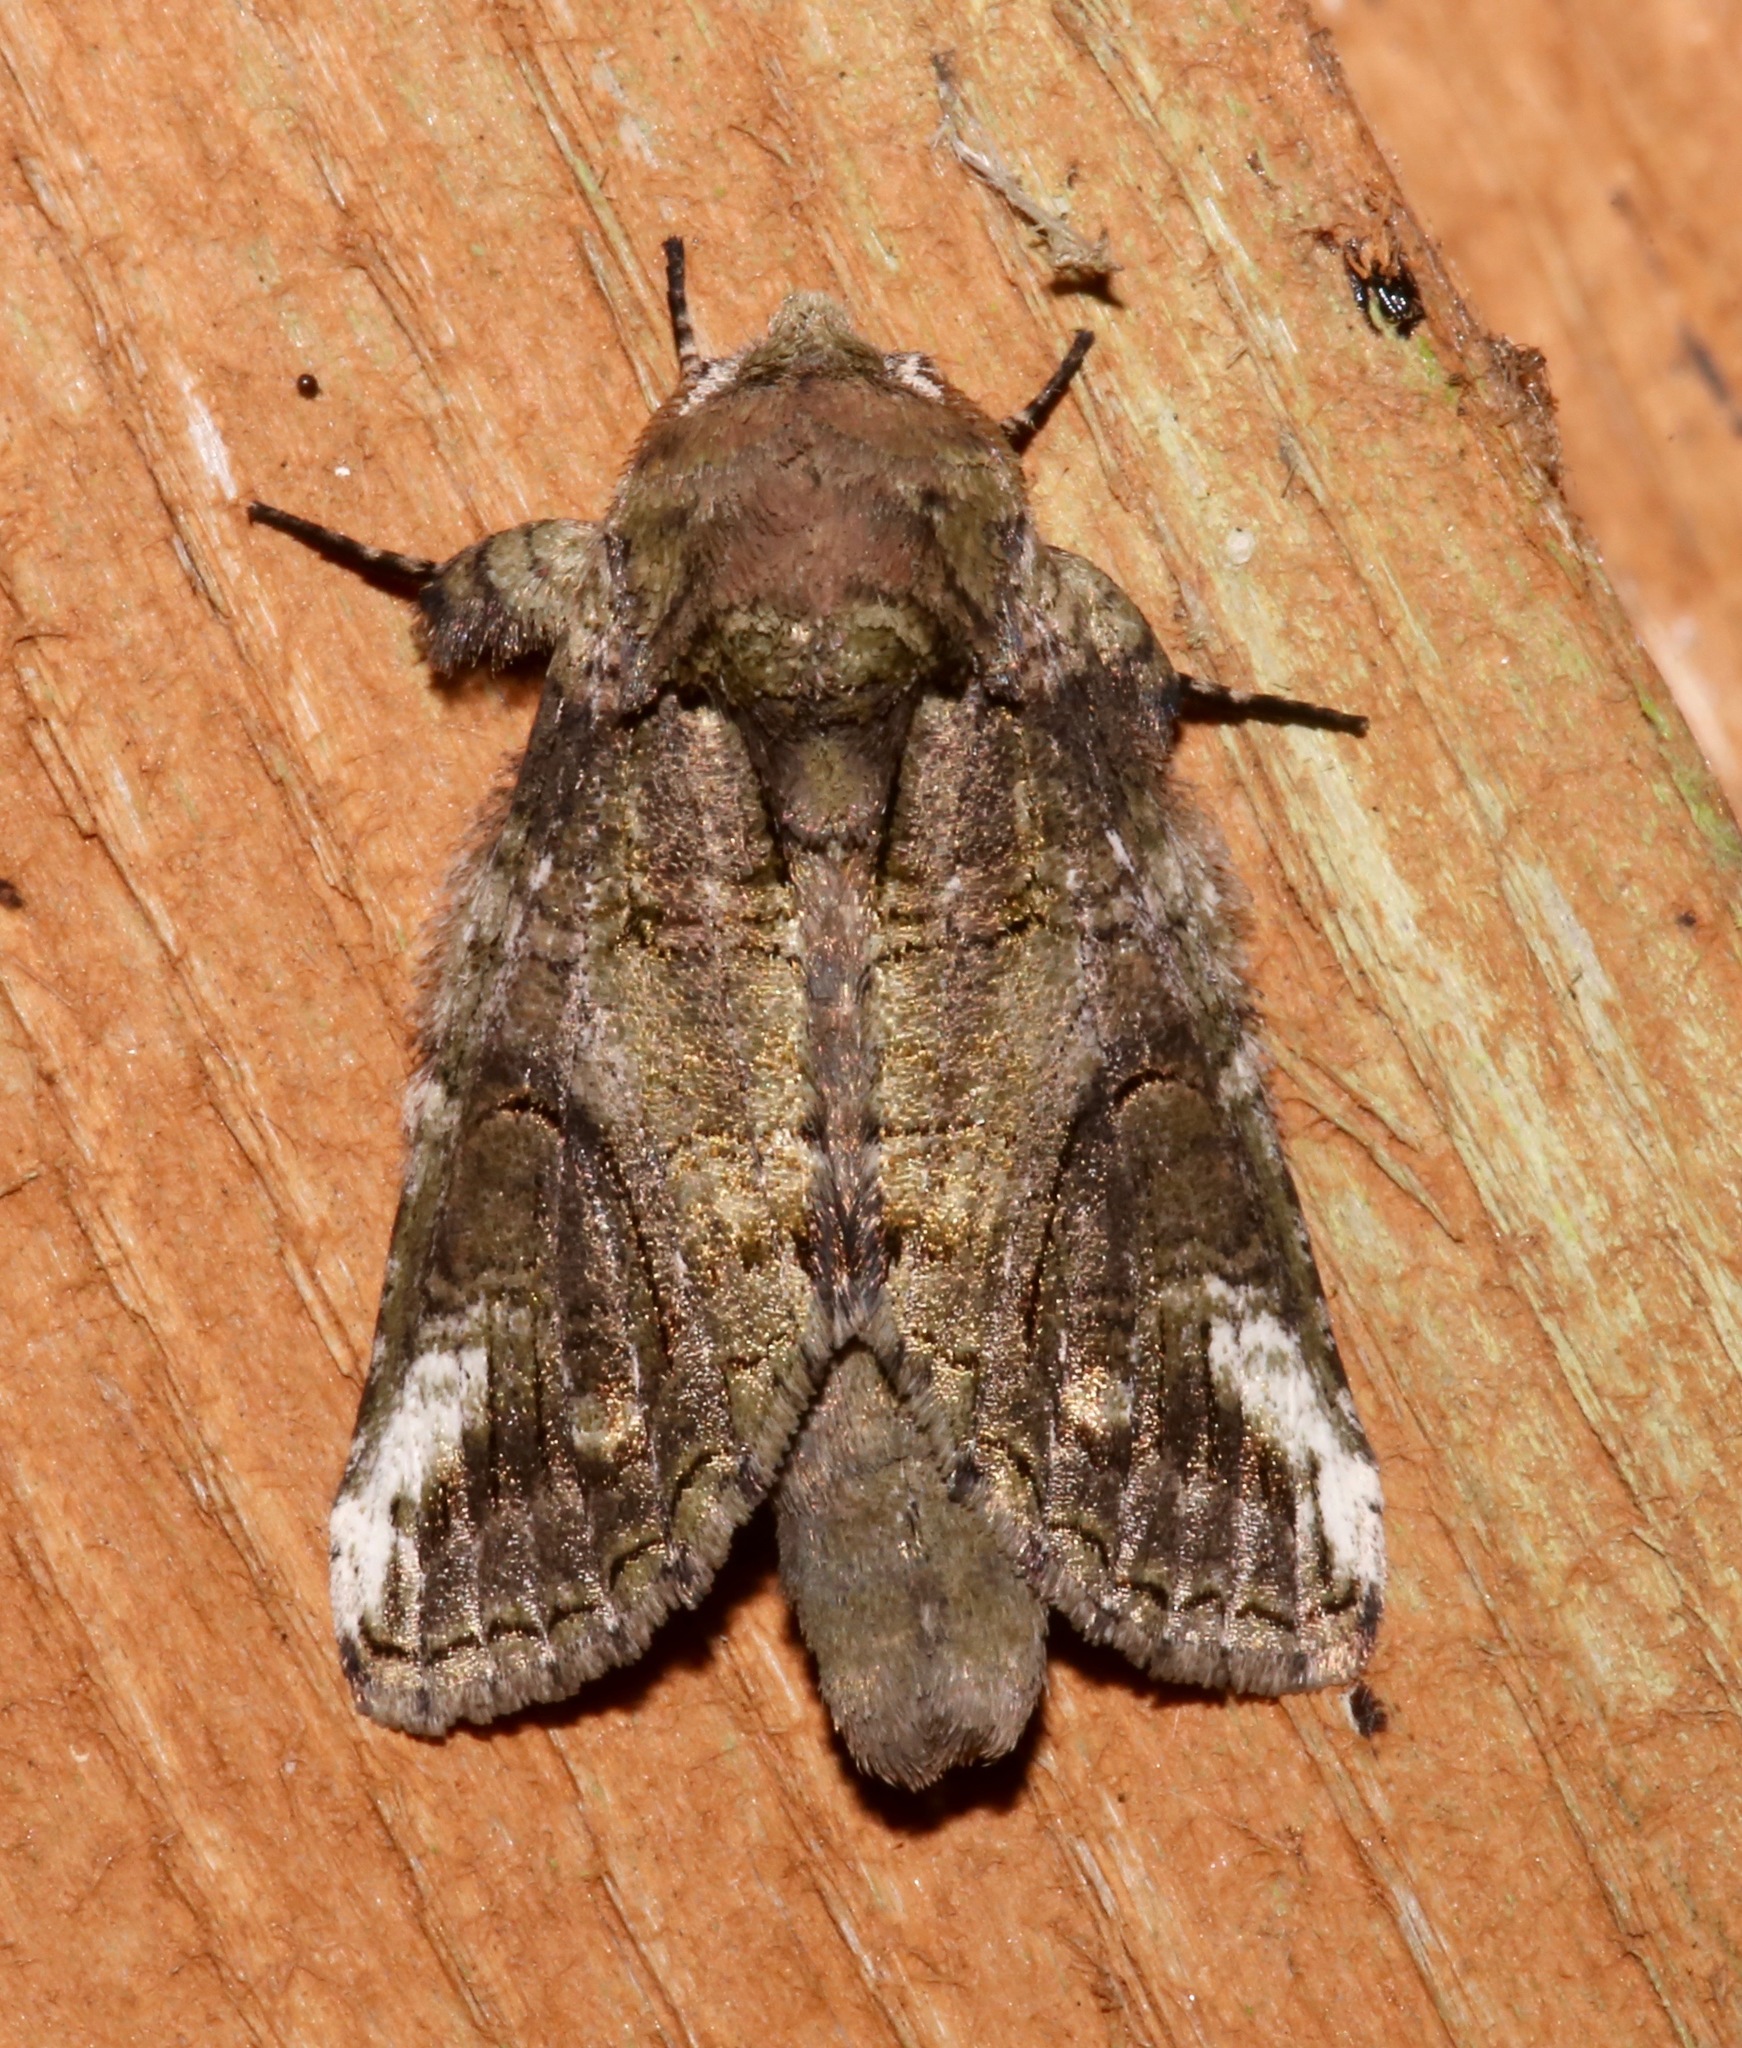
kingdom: Animalia
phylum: Arthropoda
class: Insecta
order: Lepidoptera
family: Notodontidae
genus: Heterocampa
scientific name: Heterocampa obliqua
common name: Oblique heterocampa
